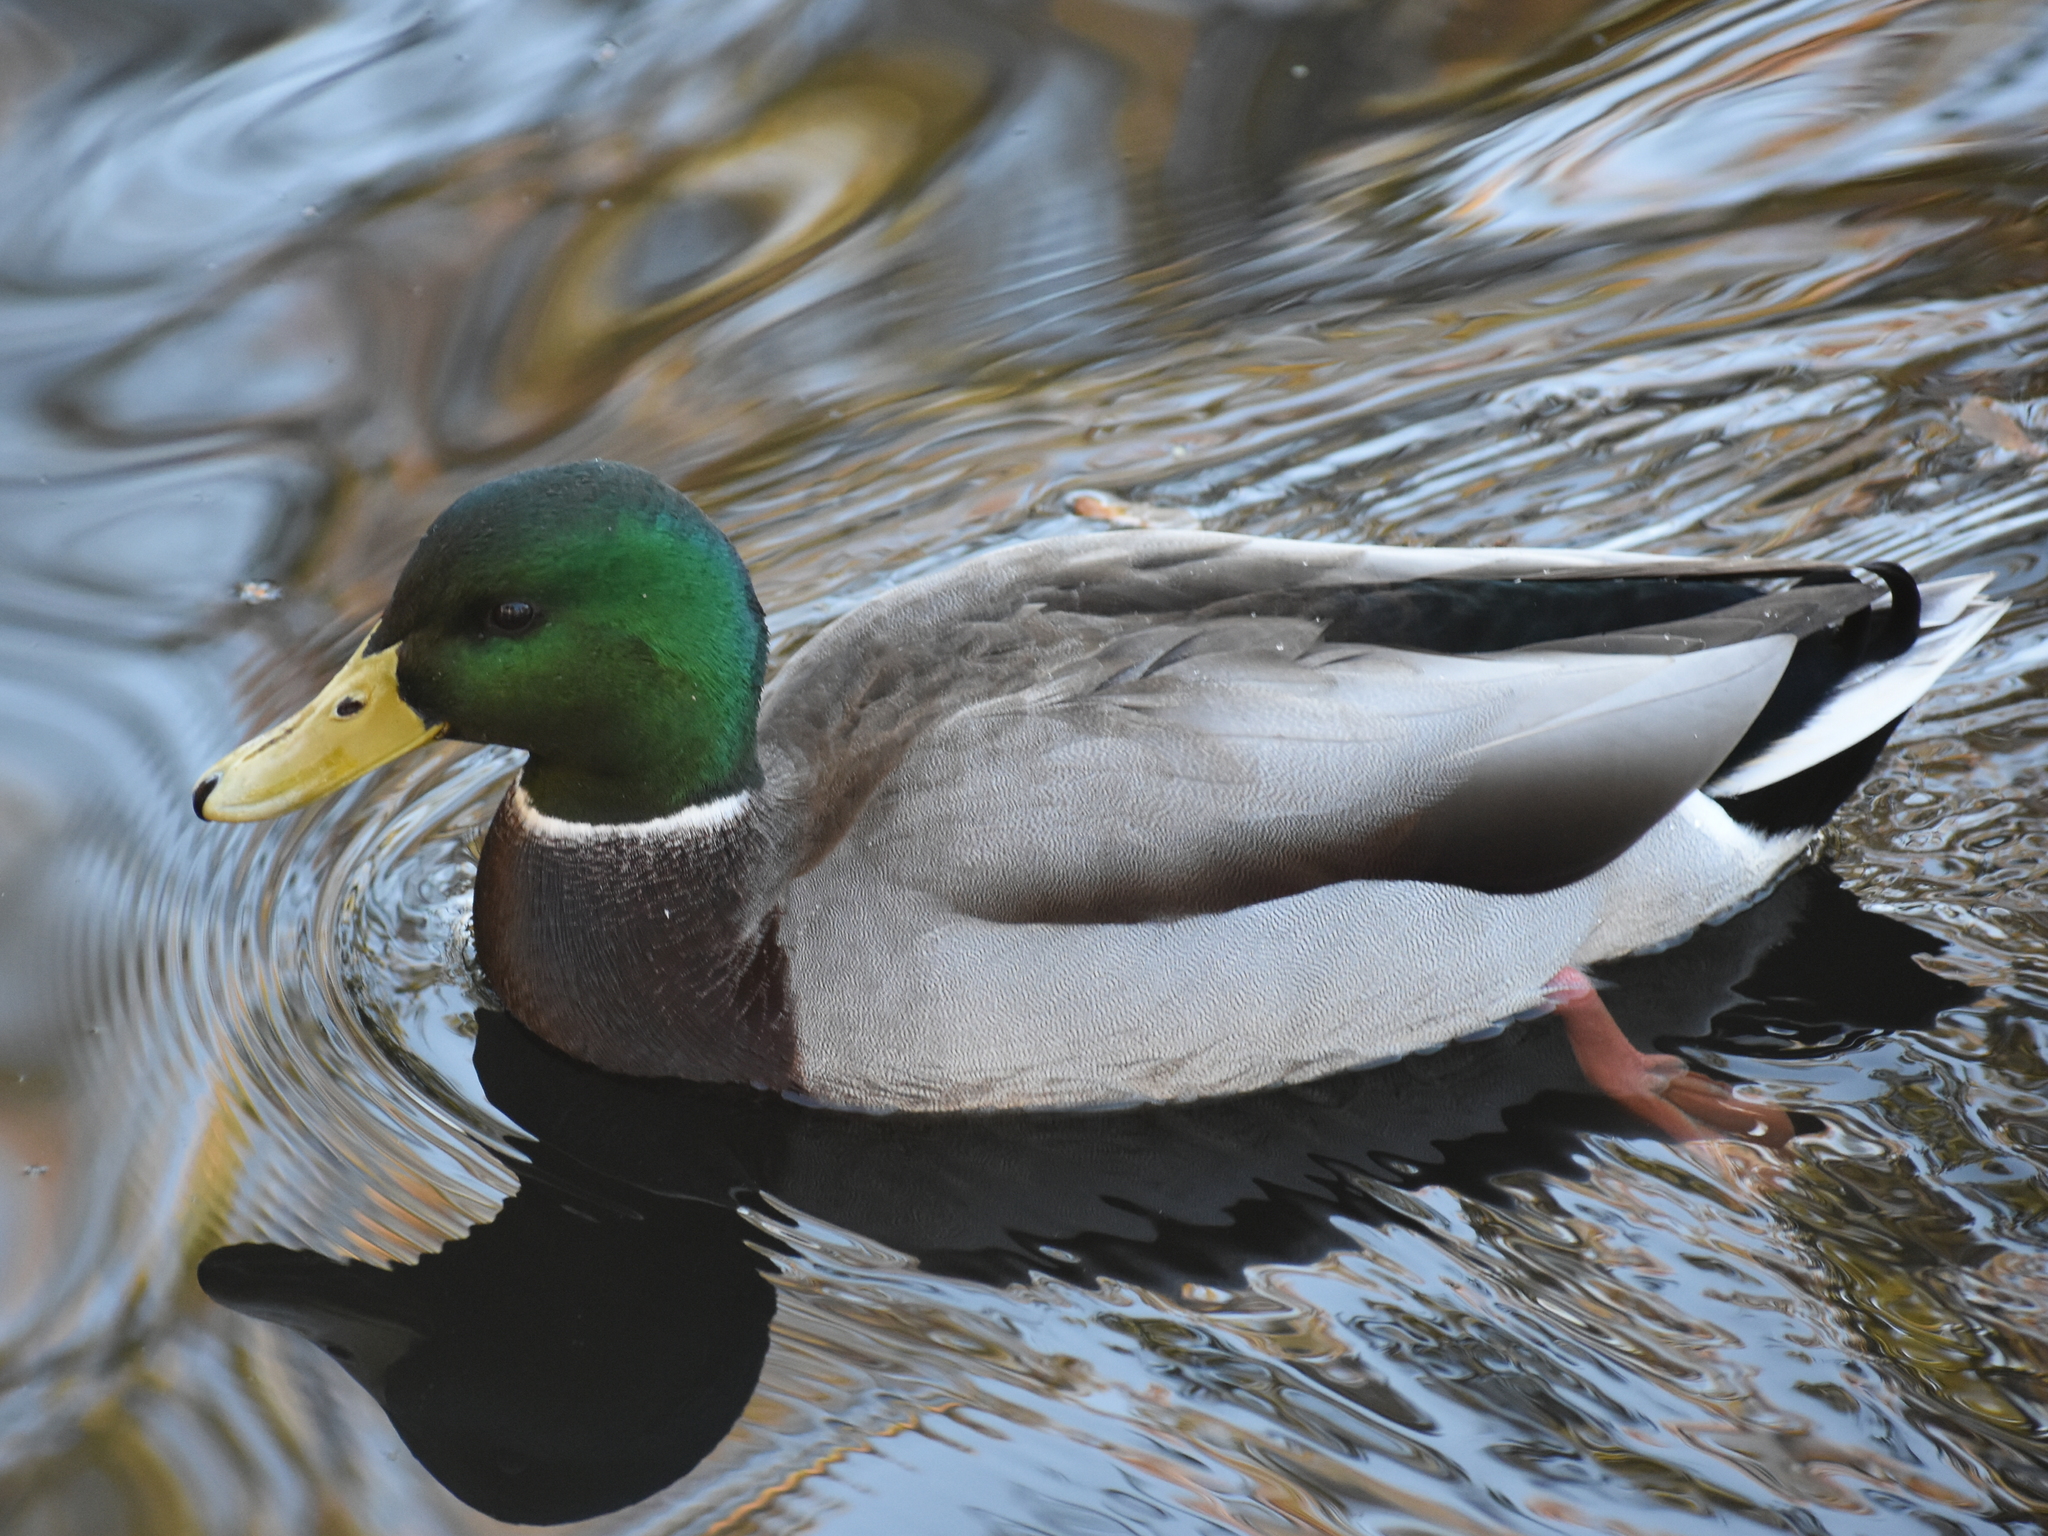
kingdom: Animalia
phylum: Chordata
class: Aves
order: Anseriformes
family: Anatidae
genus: Anas
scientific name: Anas platyrhynchos
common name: Mallard
